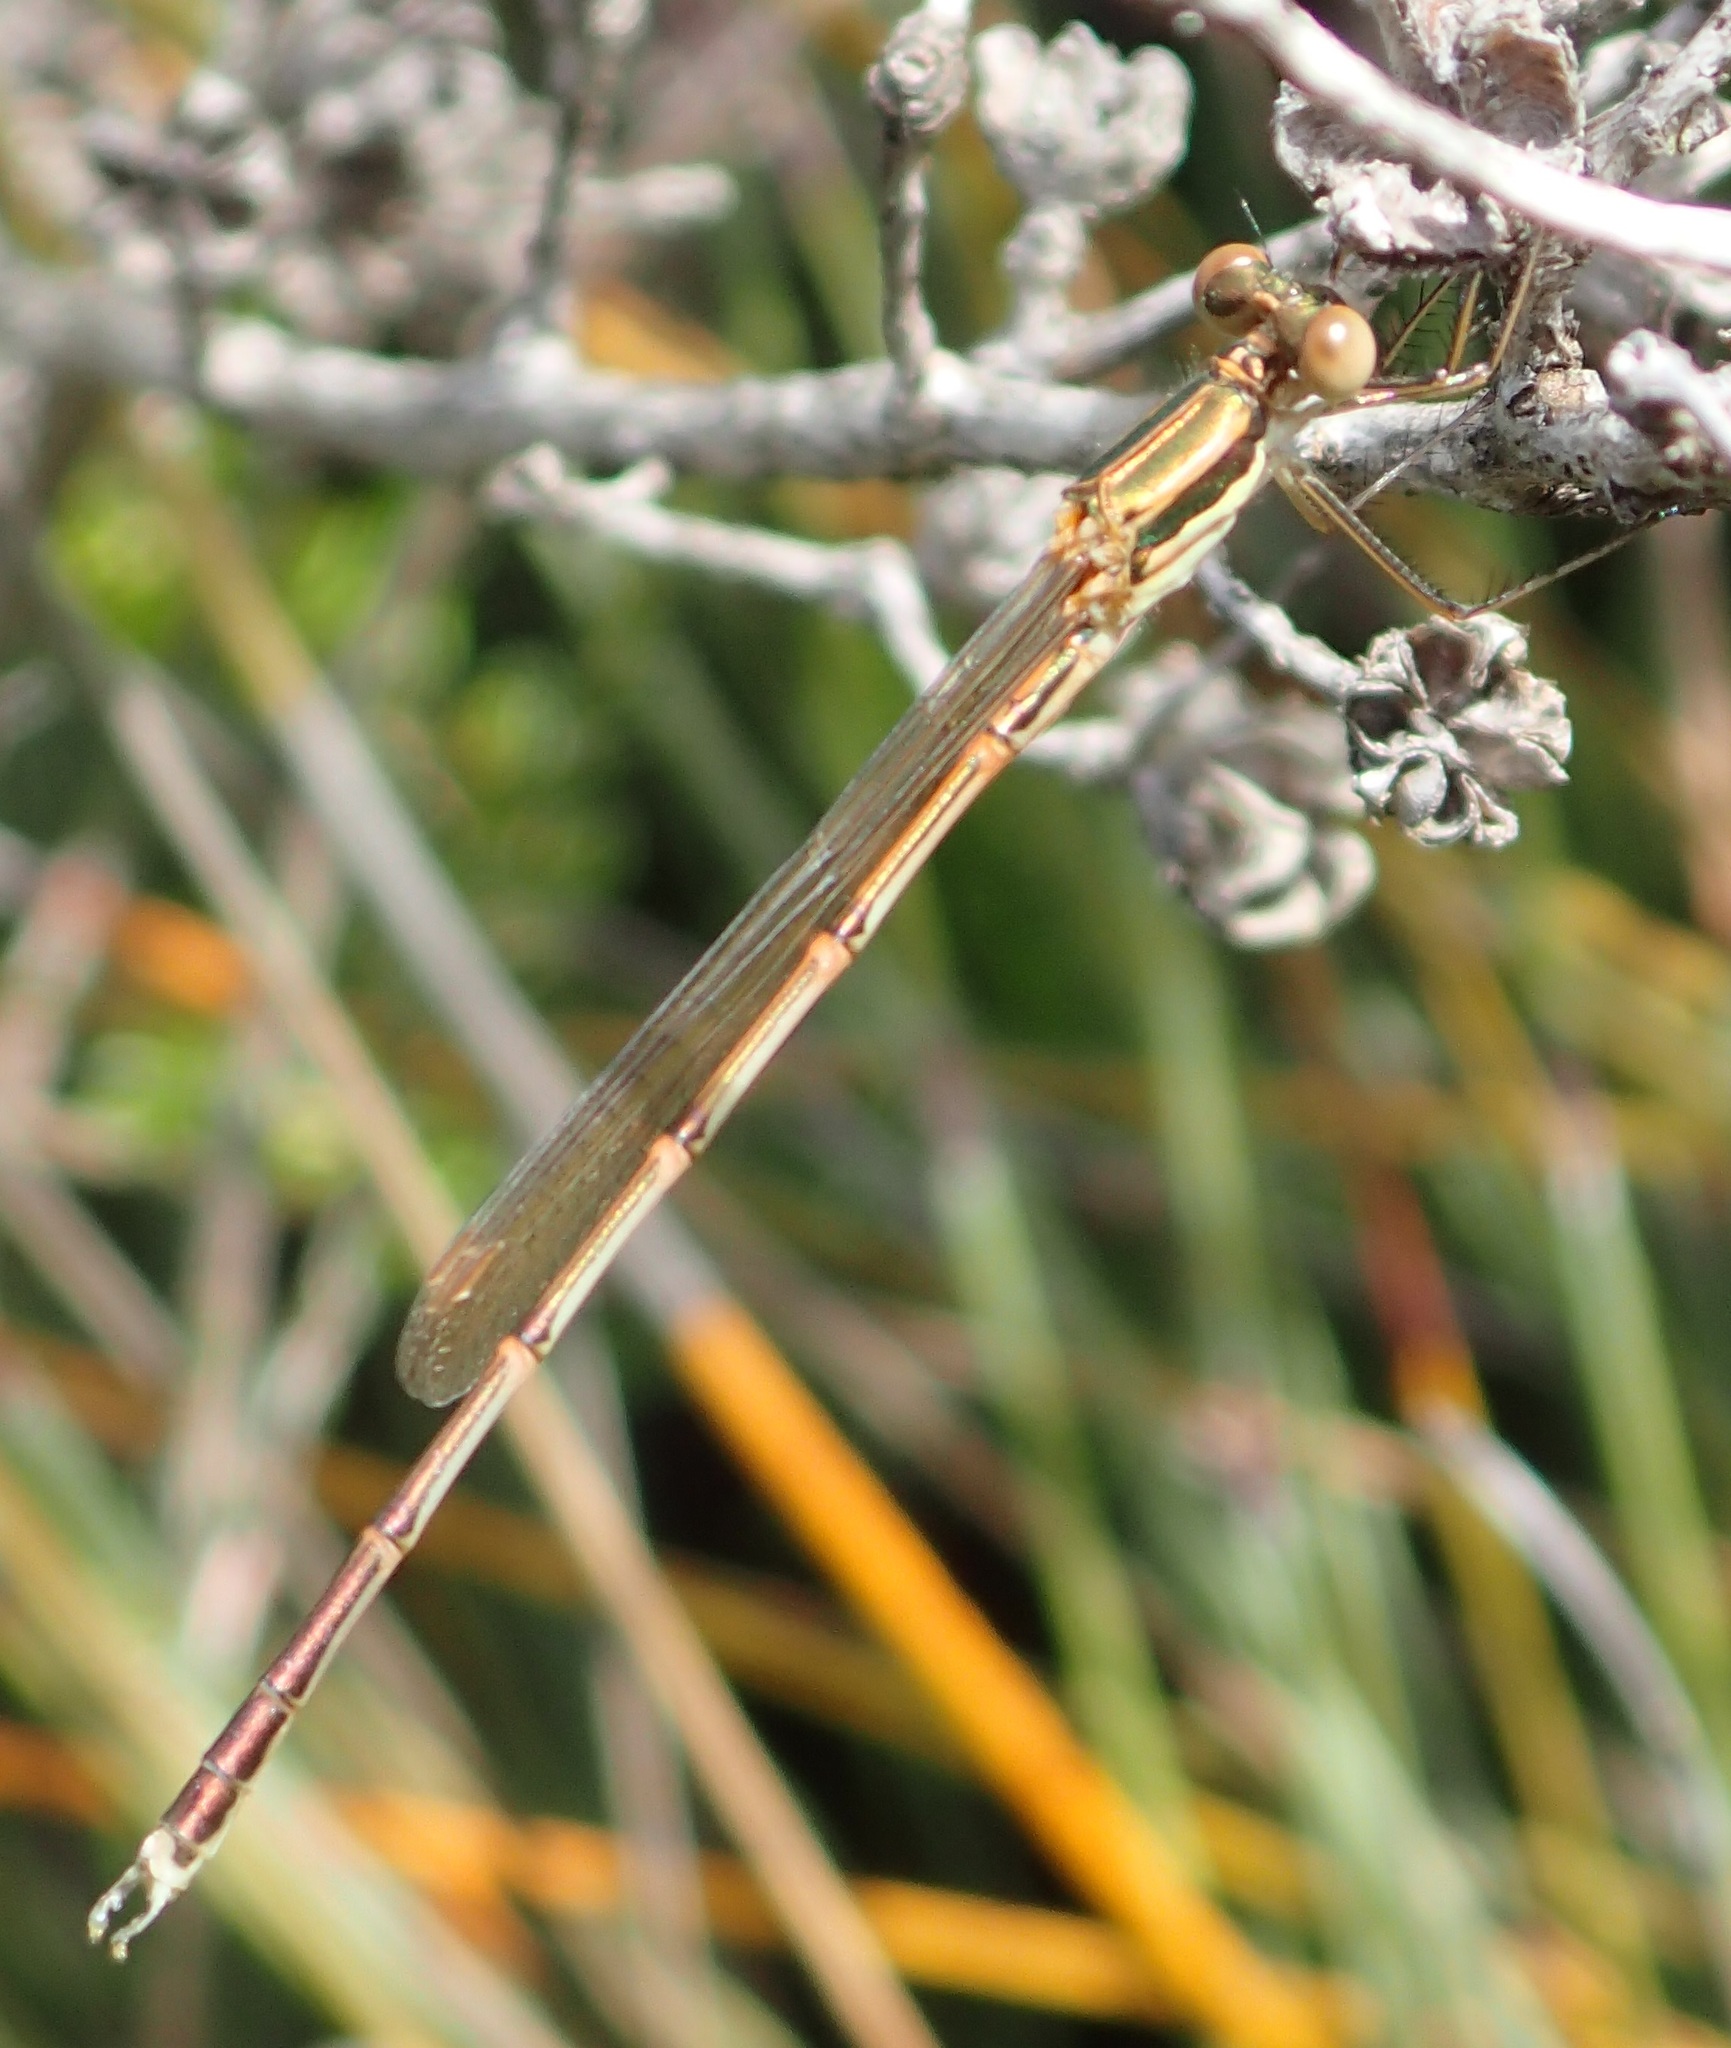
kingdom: Animalia
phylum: Arthropoda
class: Insecta
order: Odonata
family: Lestidae
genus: Austrolestes
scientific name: Austrolestes analis
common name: Slender ringtail
